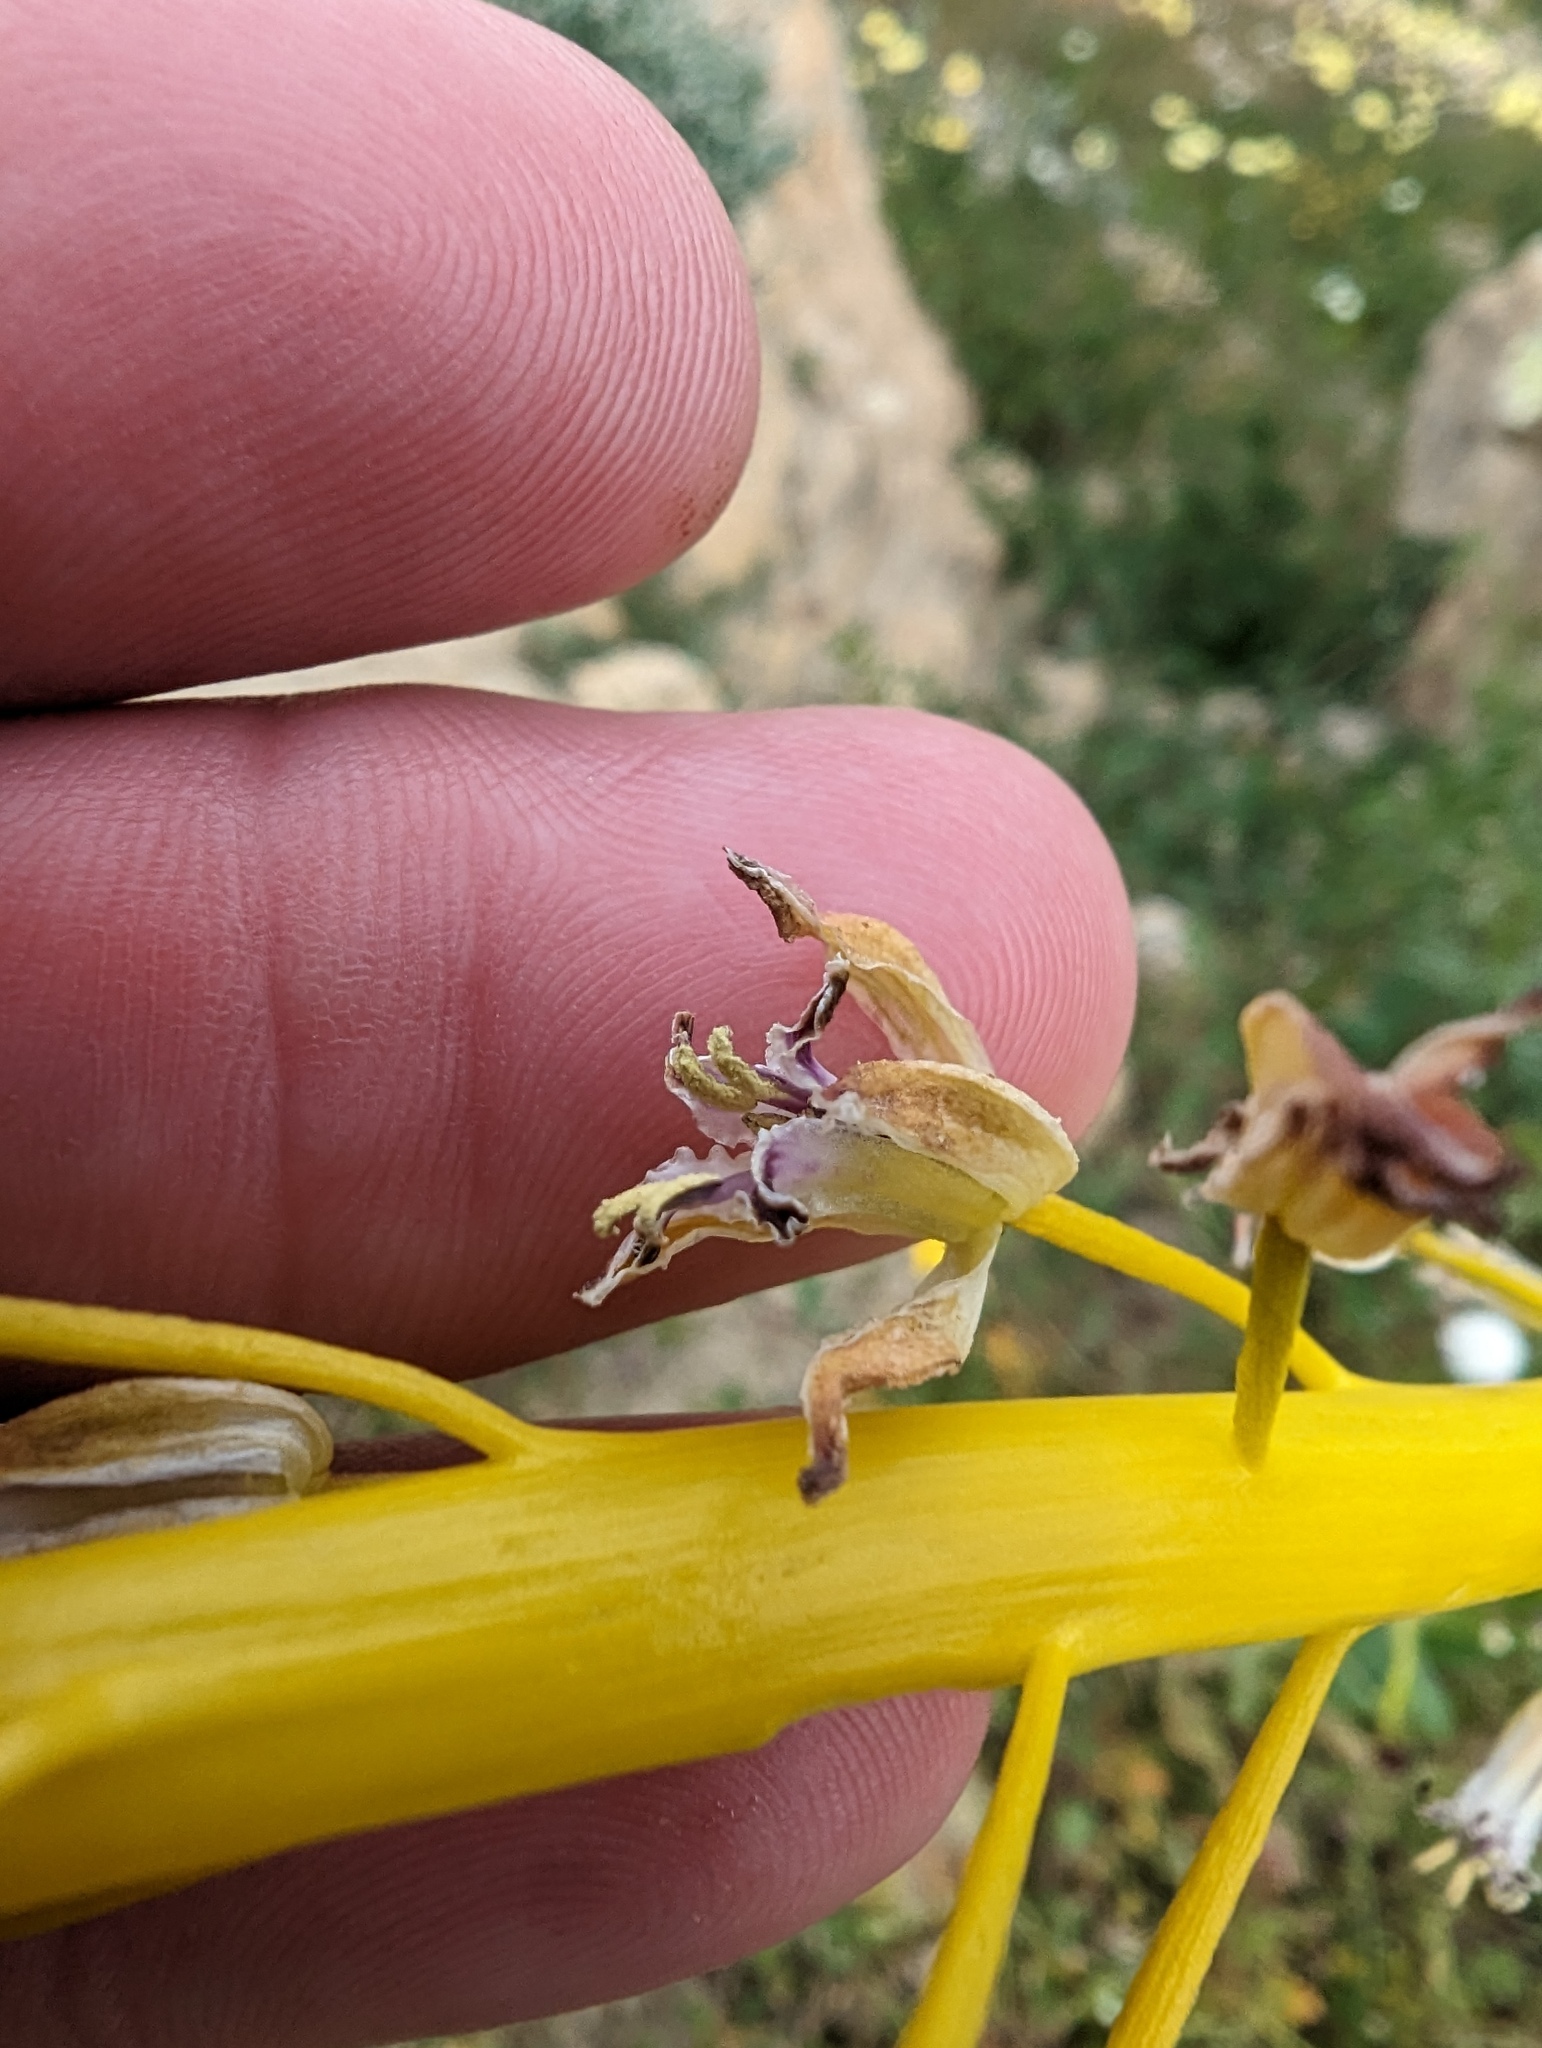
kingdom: Plantae
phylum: Tracheophyta
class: Magnoliopsida
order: Brassicales
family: Brassicaceae
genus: Streptanthus
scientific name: Streptanthus inflatus
